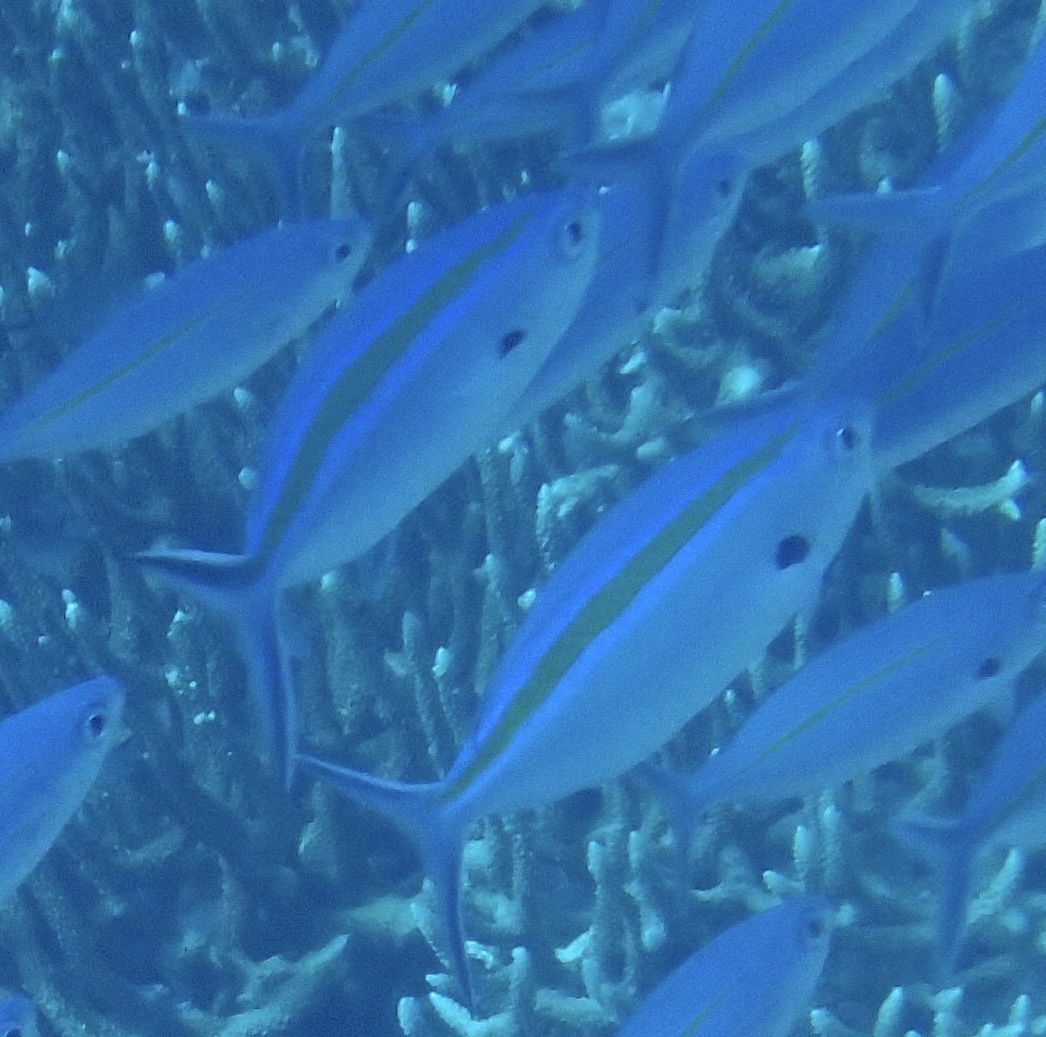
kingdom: Animalia
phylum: Chordata
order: Perciformes
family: Caesionidae
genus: Caesio
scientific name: Caesio caerulaurea
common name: Blue and gold fusilier
